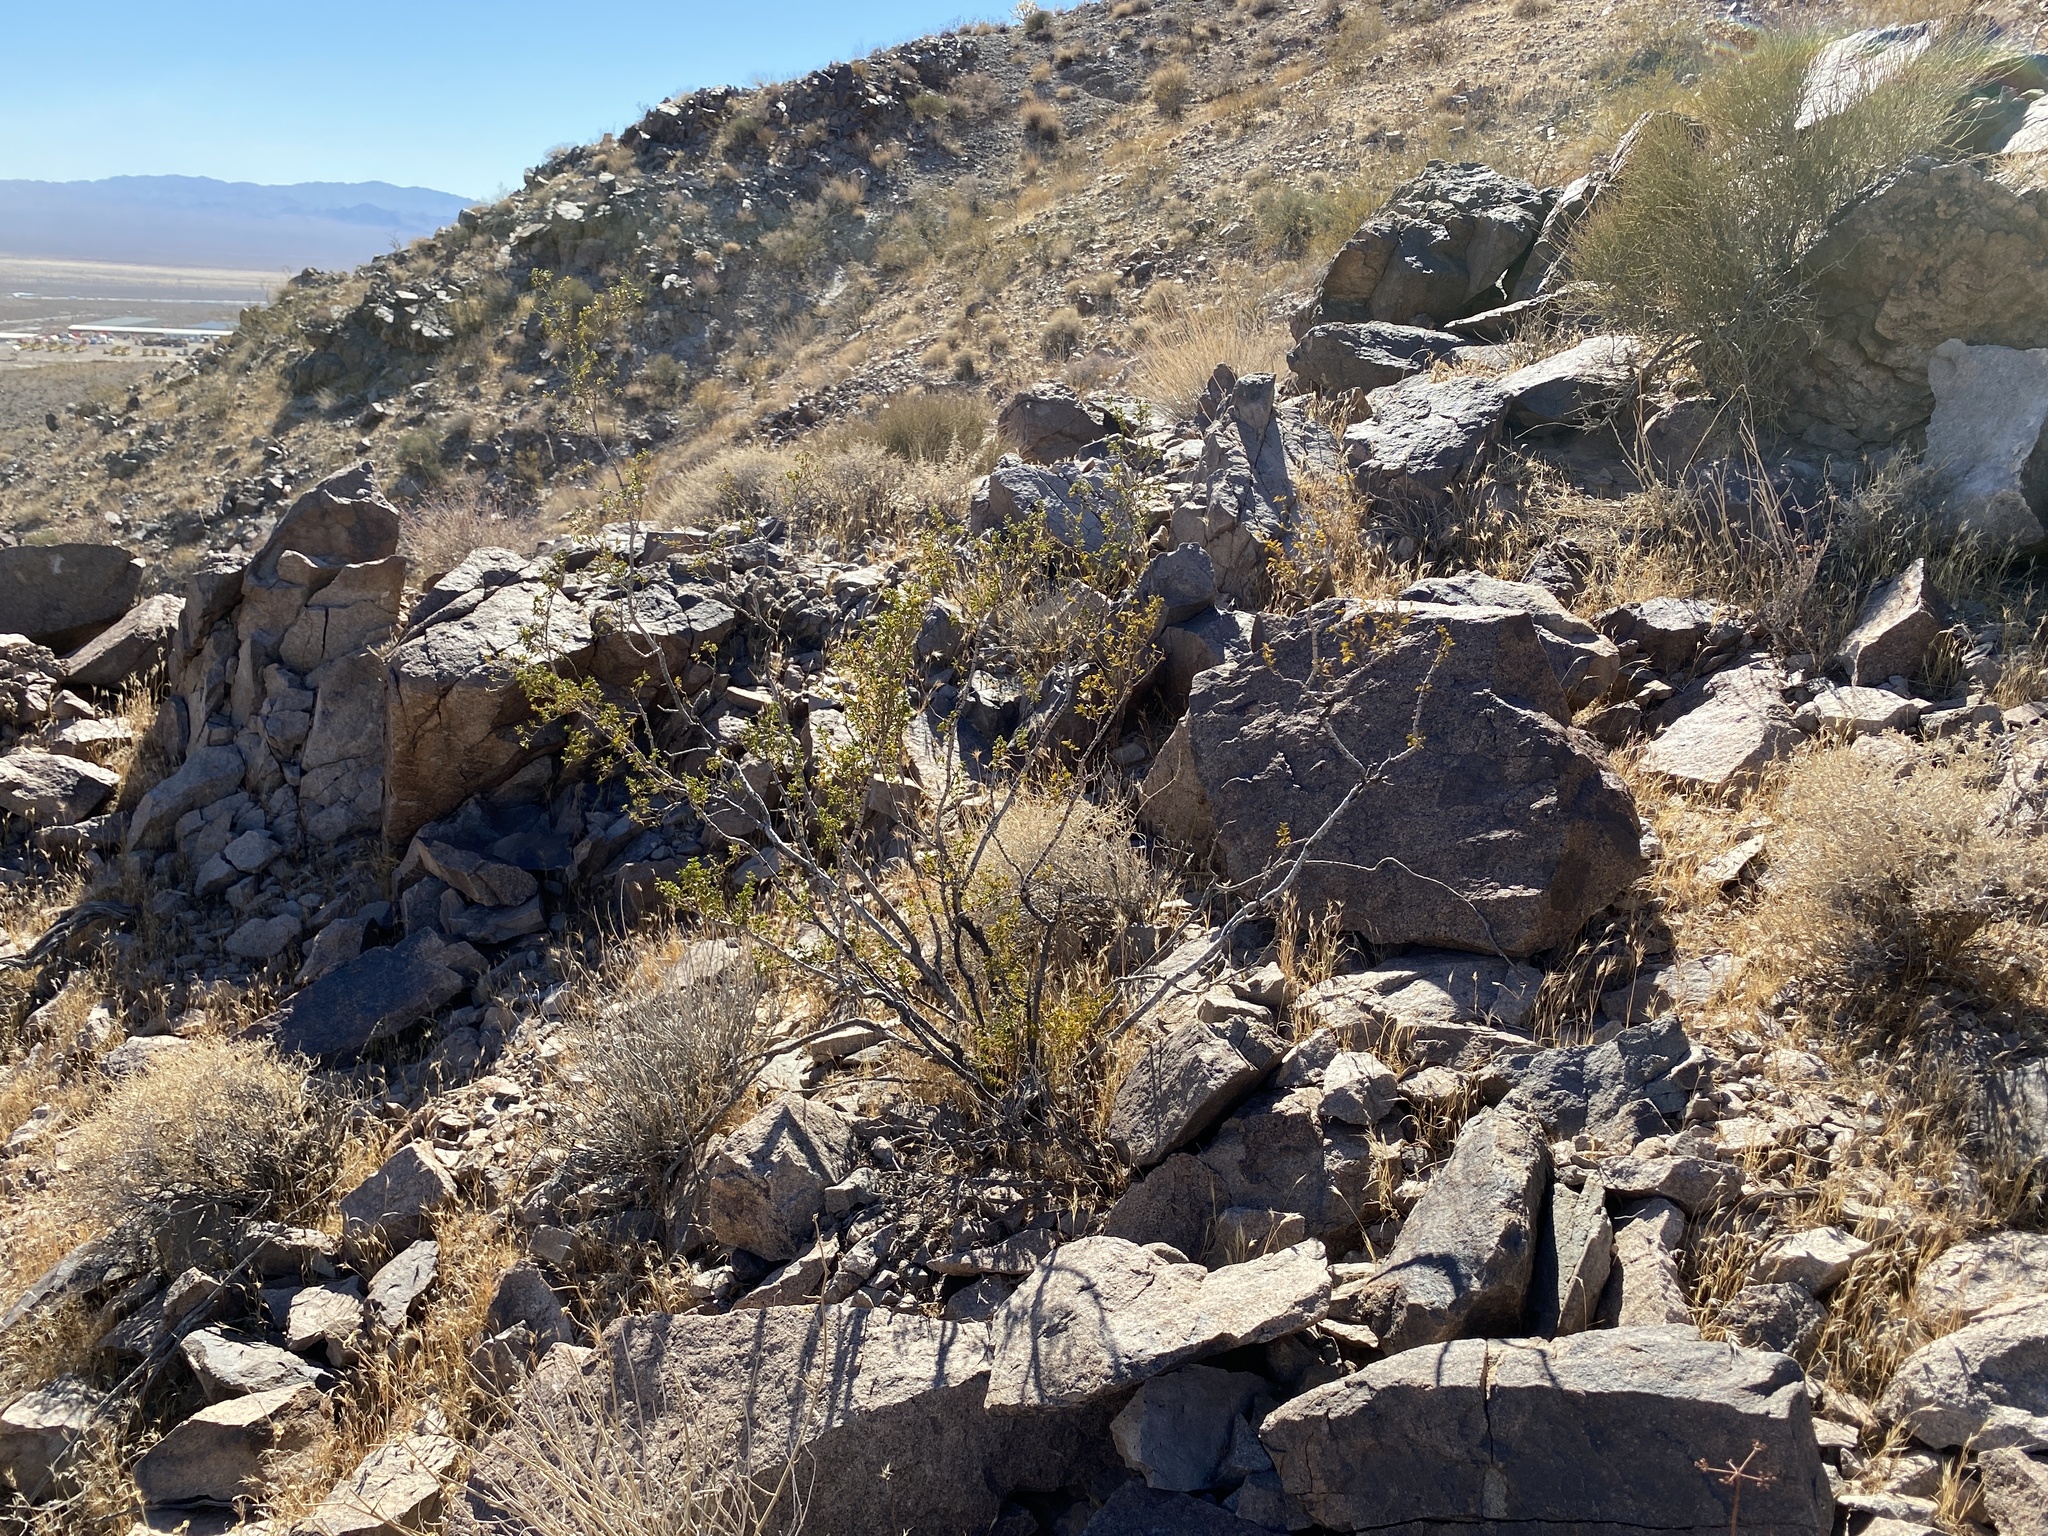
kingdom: Plantae
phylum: Tracheophyta
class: Magnoliopsida
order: Zygophyllales
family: Zygophyllaceae
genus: Larrea
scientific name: Larrea tridentata
